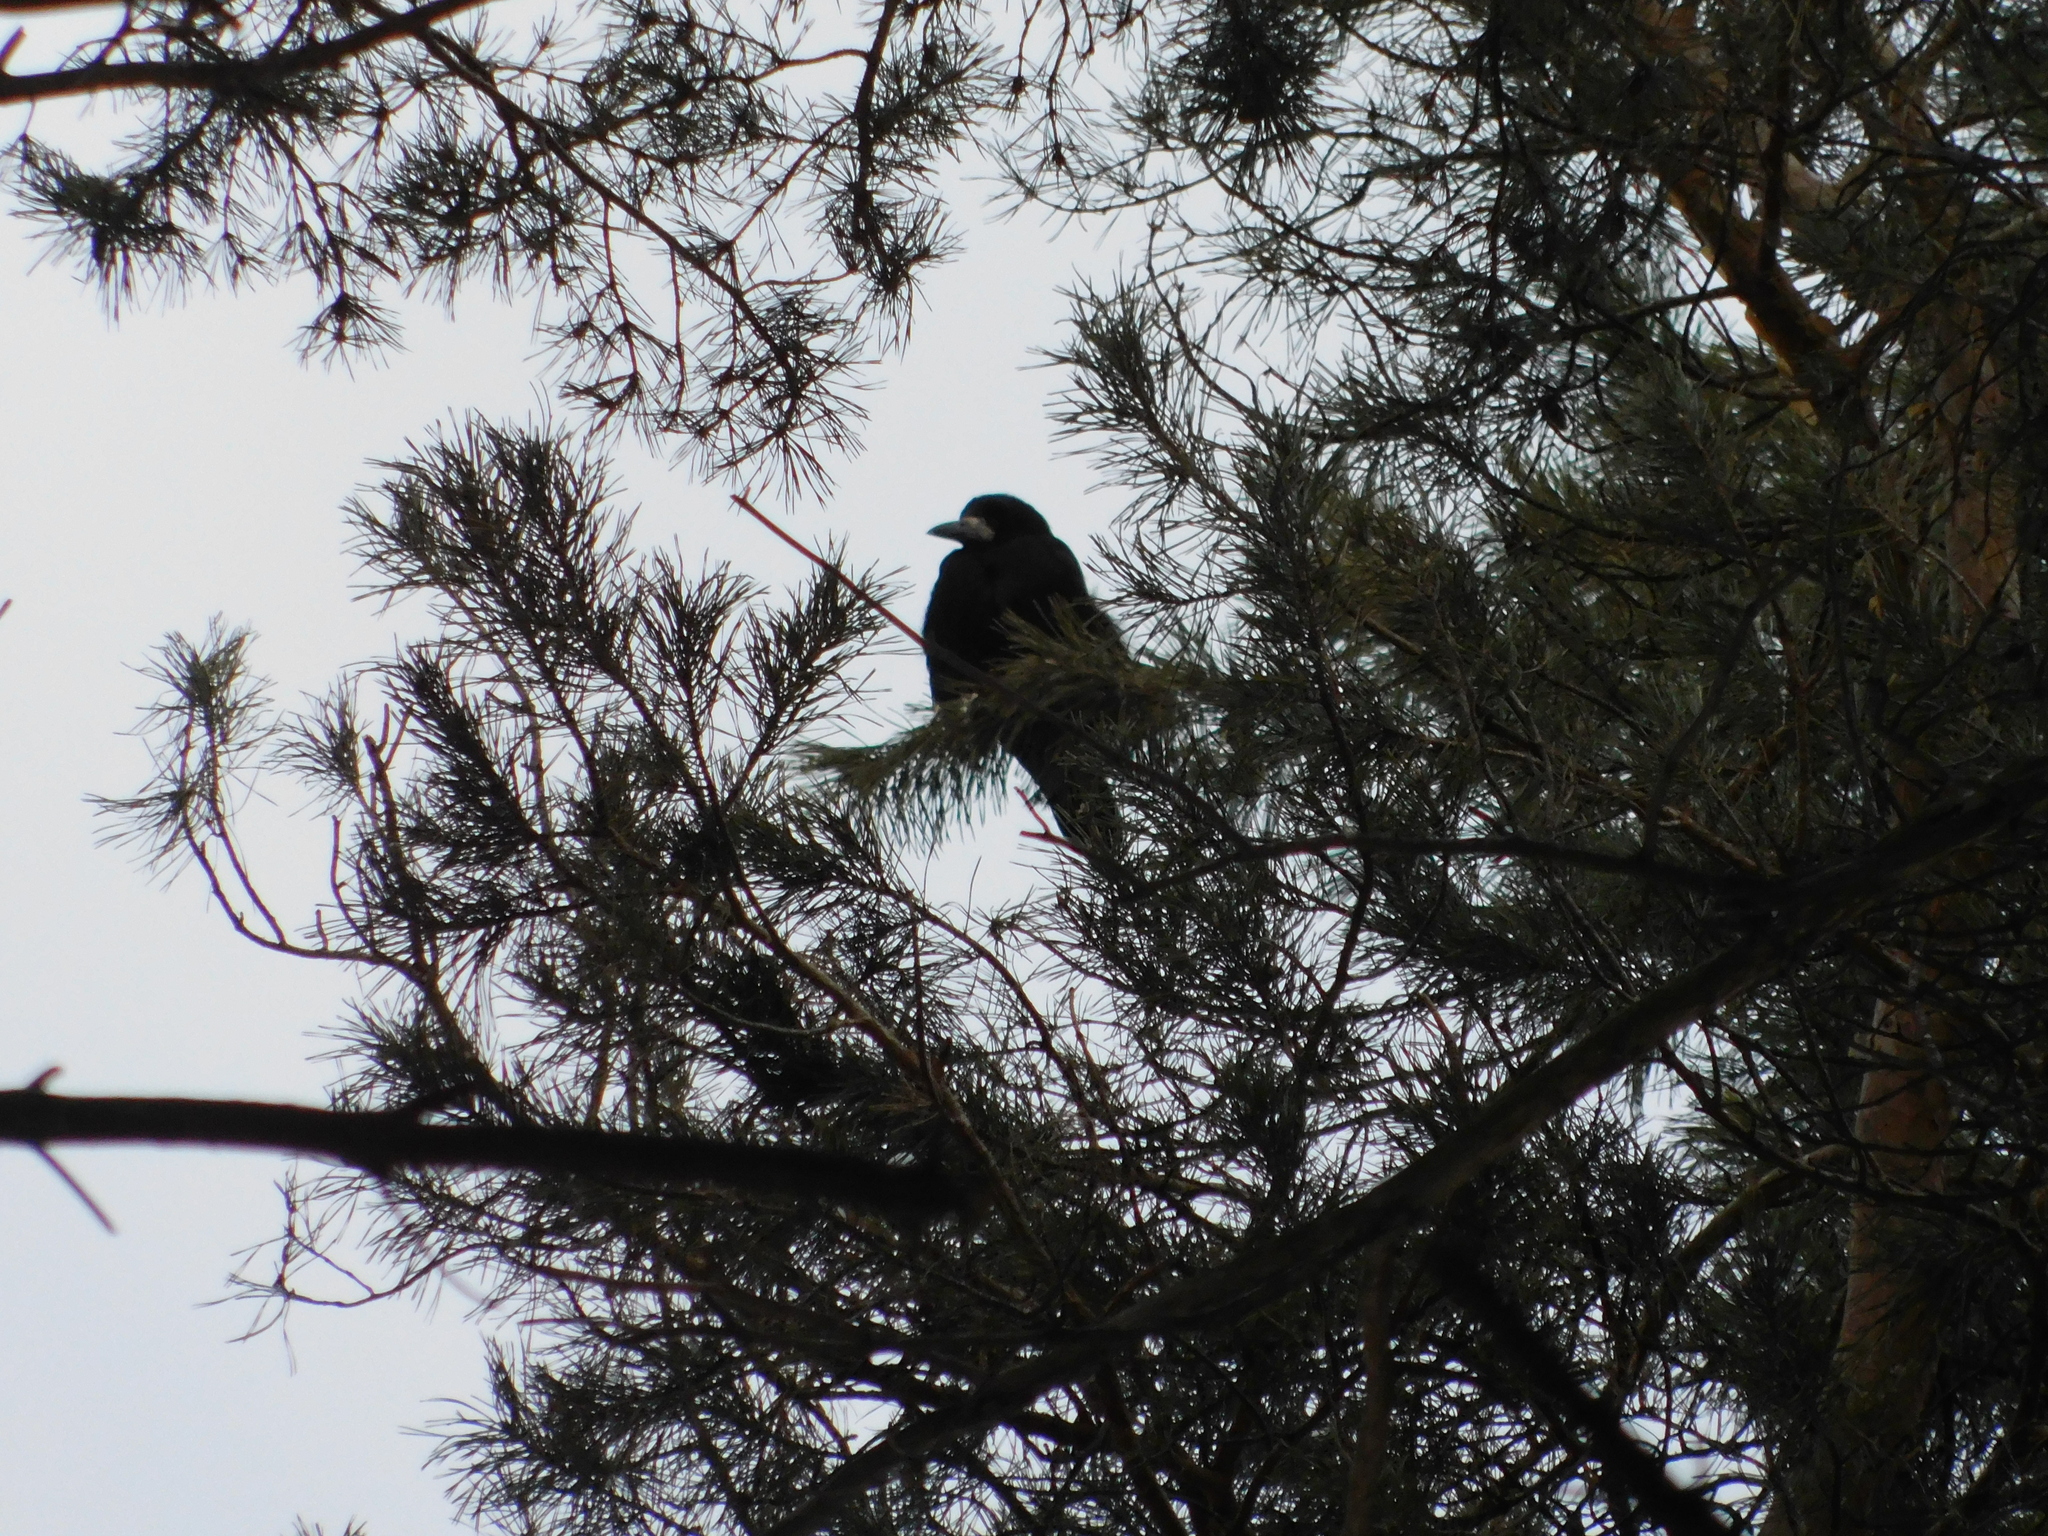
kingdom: Animalia
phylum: Chordata
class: Aves
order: Passeriformes
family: Corvidae
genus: Corvus
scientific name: Corvus frugilegus
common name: Rook
